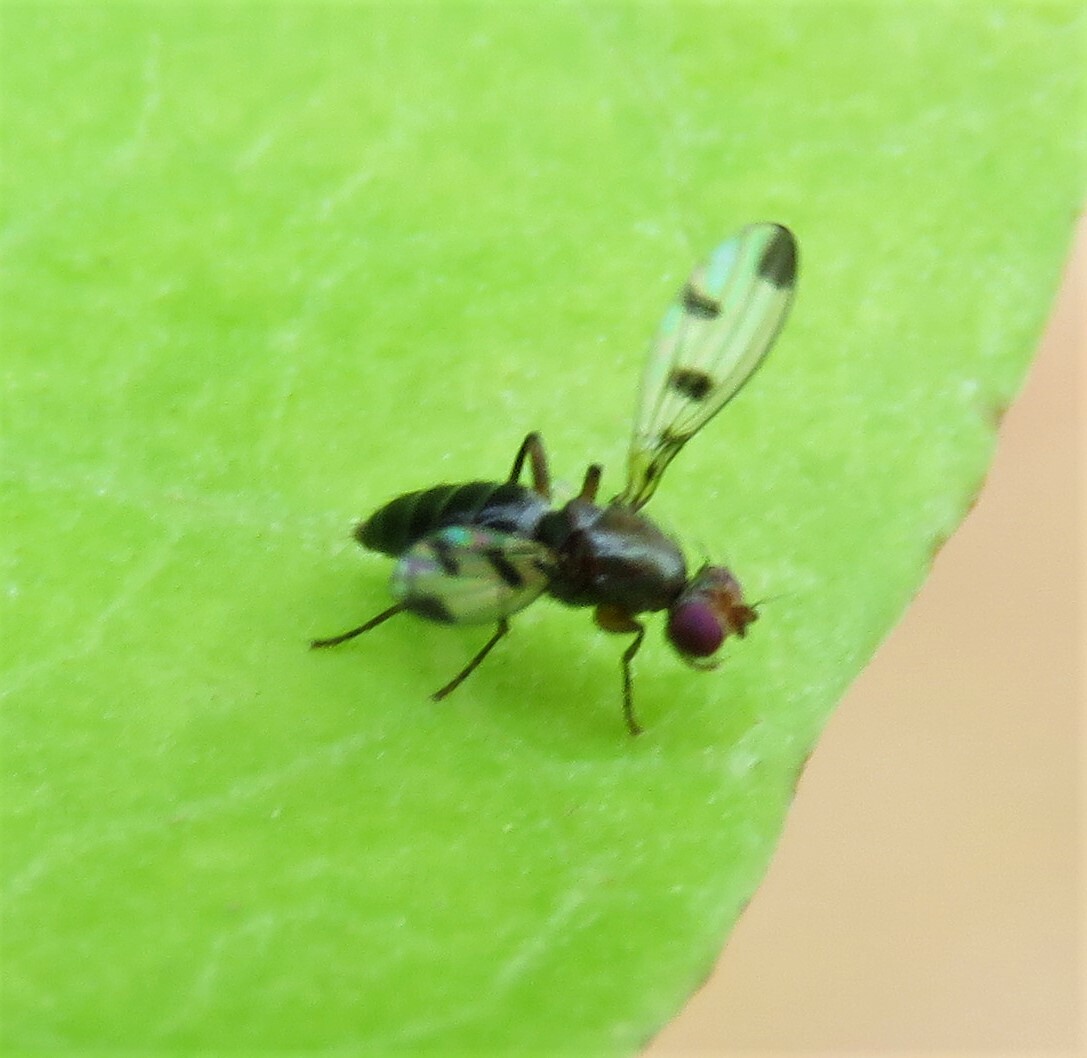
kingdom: Animalia
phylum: Arthropoda
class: Insecta
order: Diptera
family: Opomyzidae
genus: Geomyza
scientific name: Geomyza tripunctata
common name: Cereal fly
